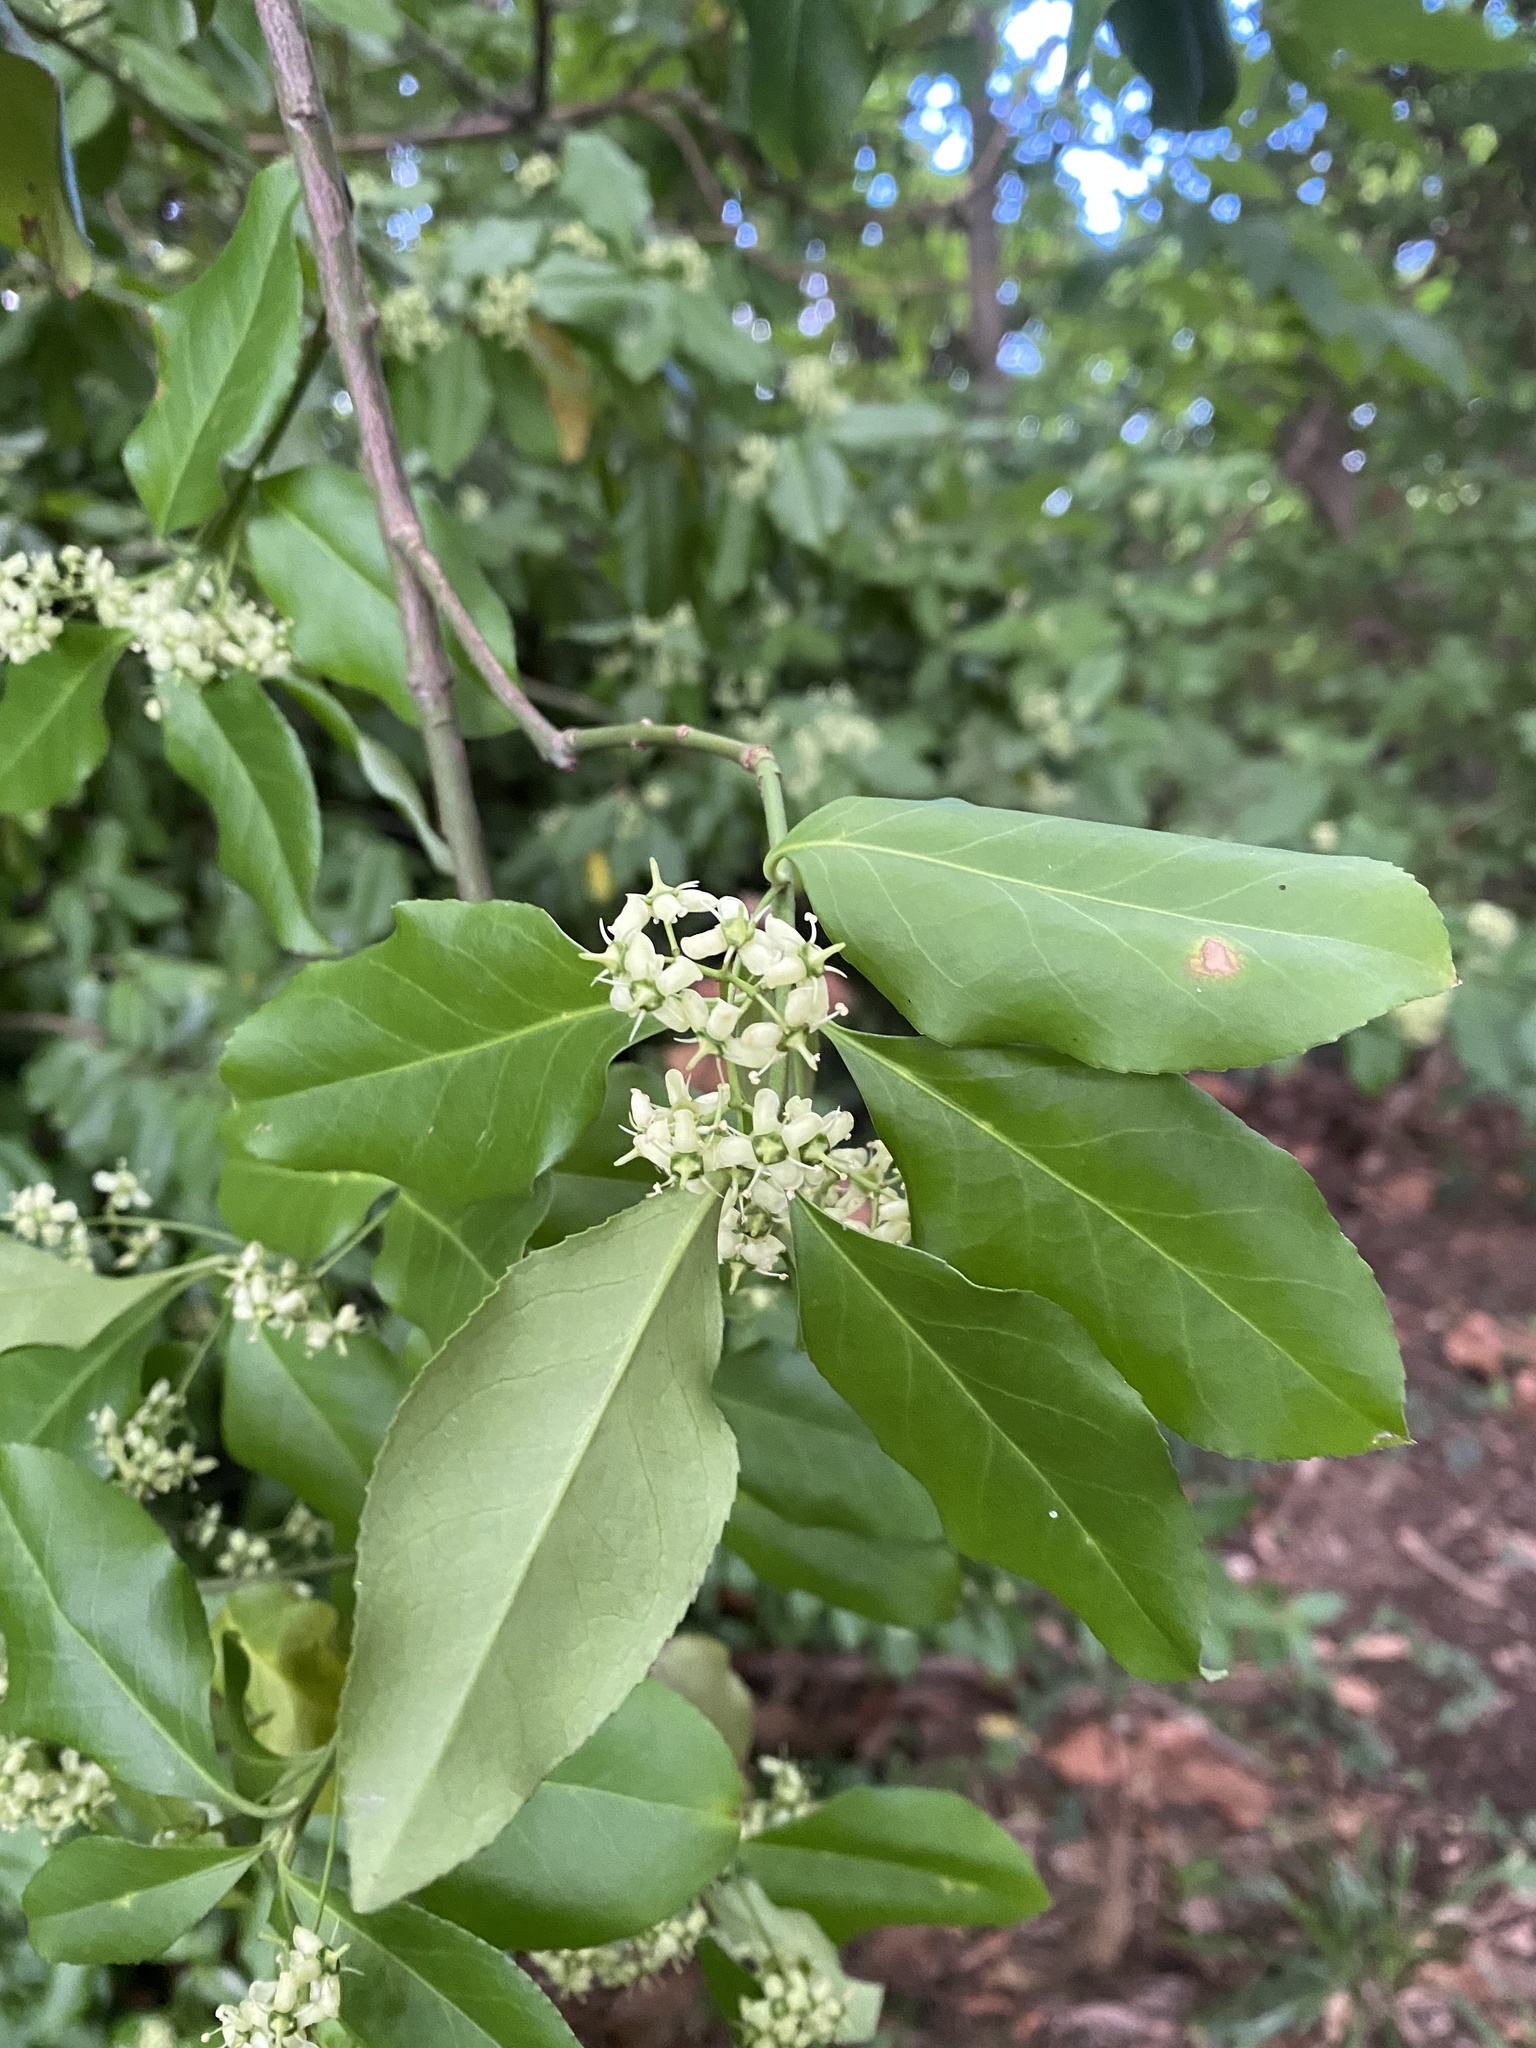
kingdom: Plantae
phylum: Tracheophyta
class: Magnoliopsida
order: Celastrales
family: Celastraceae
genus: Euonymus
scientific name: Euonymus fortunei
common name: Climbing euonymus
